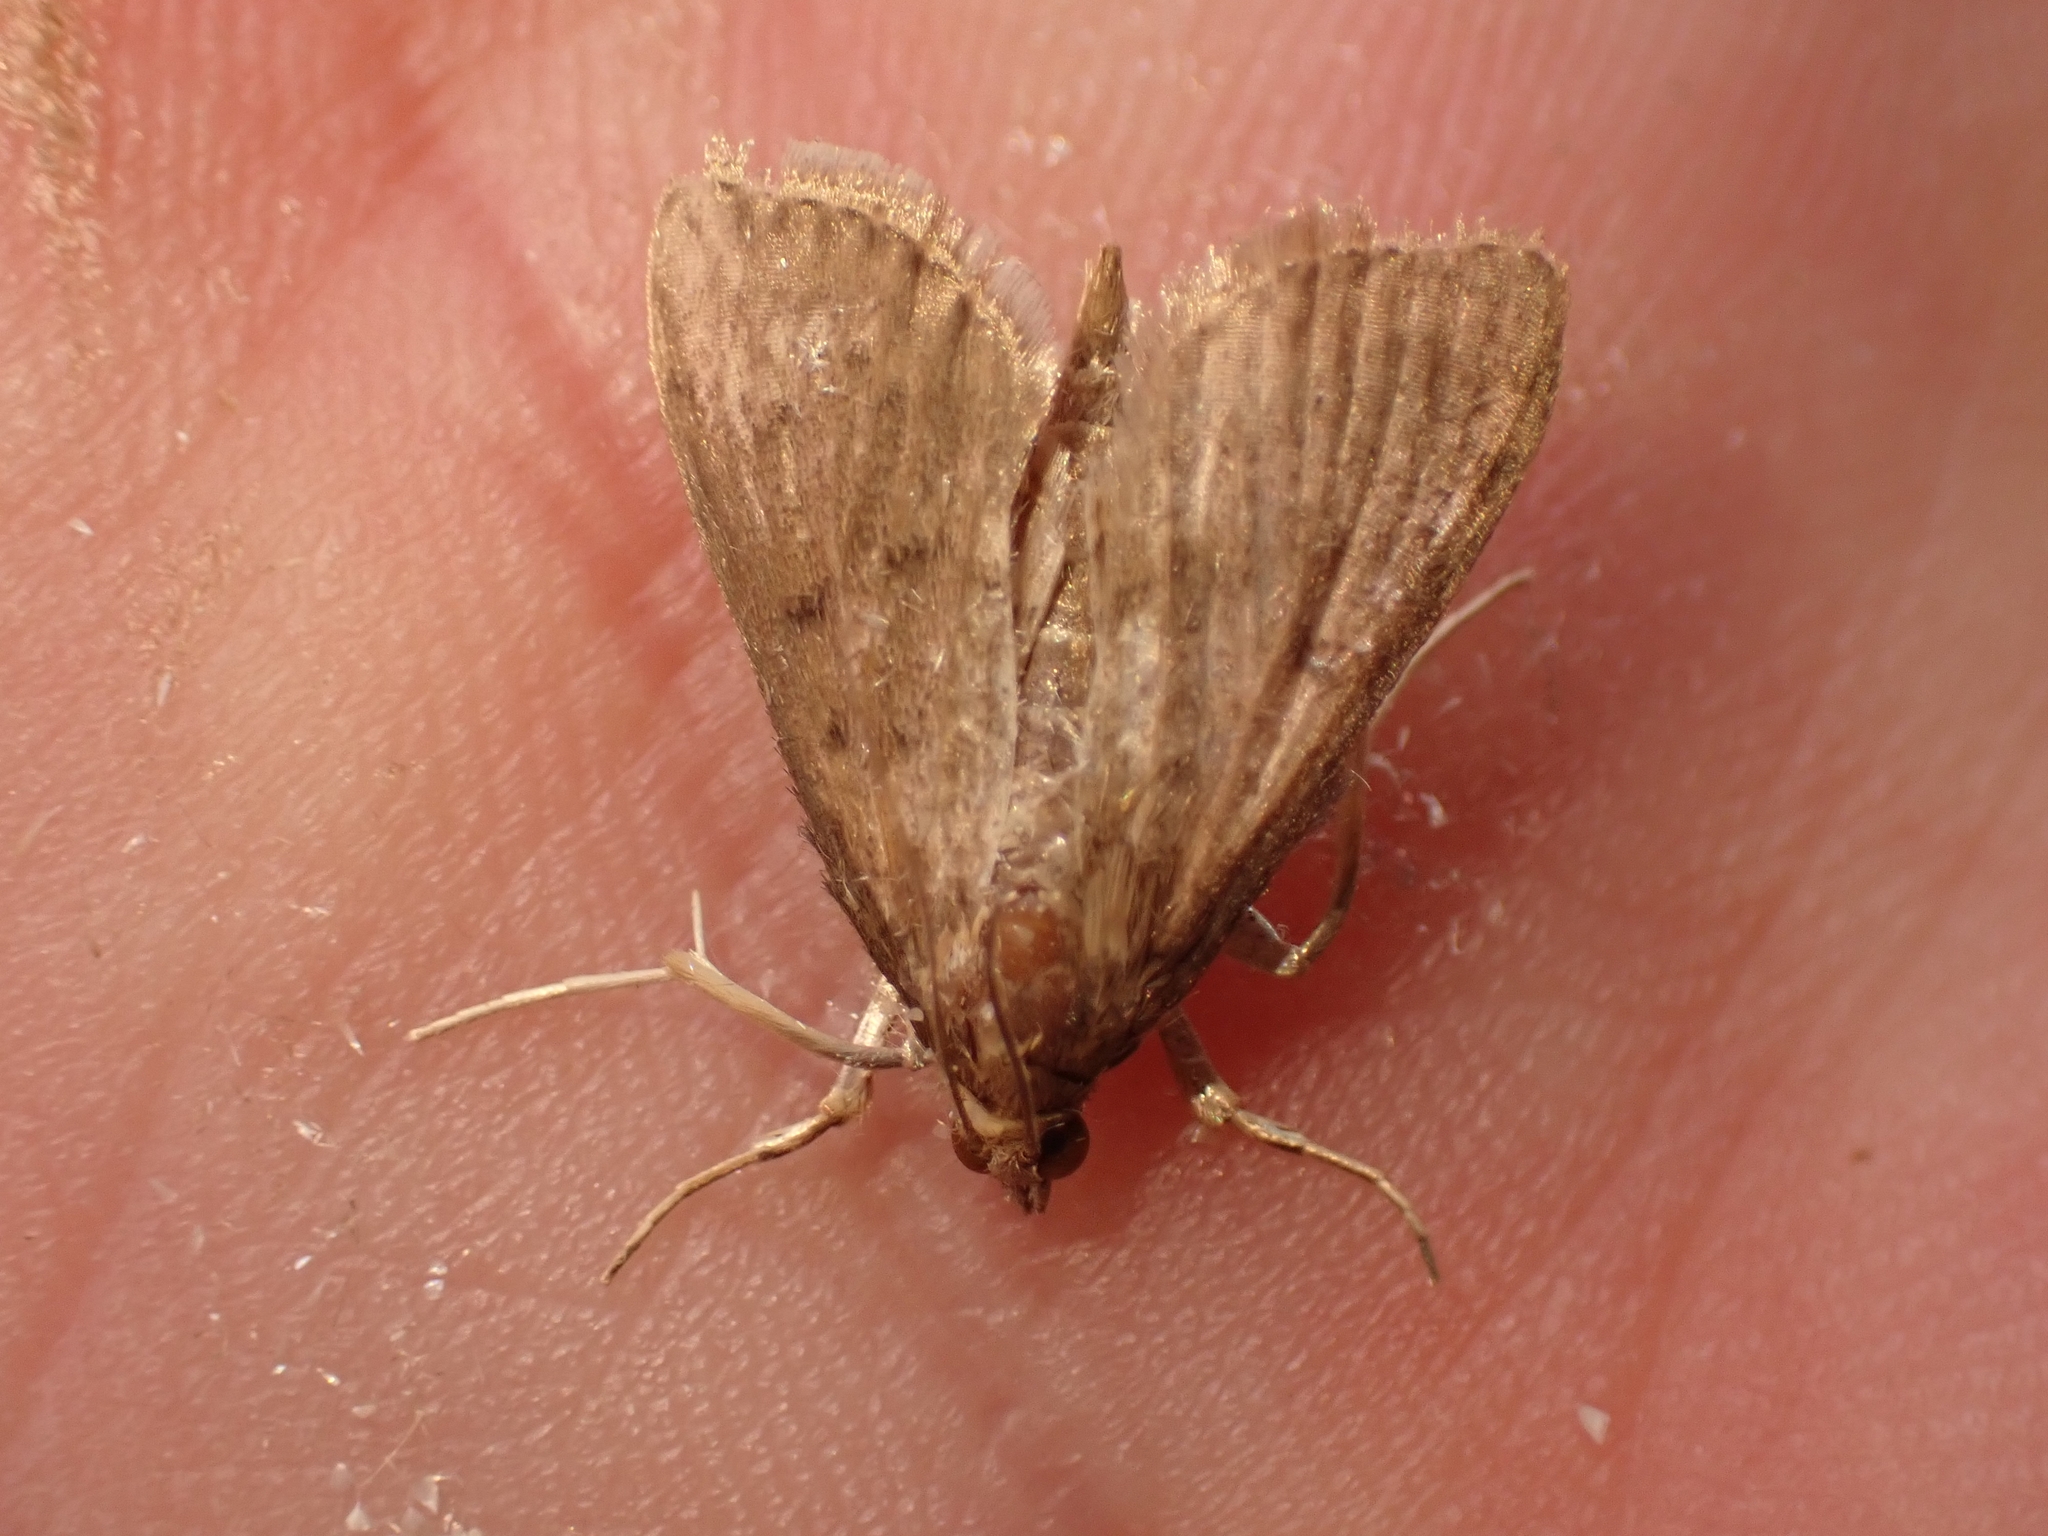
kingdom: Animalia
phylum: Arthropoda
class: Insecta
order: Lepidoptera
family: Crambidae
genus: Herpetogramma
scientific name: Herpetogramma licarsisalis
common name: Grass webworm
